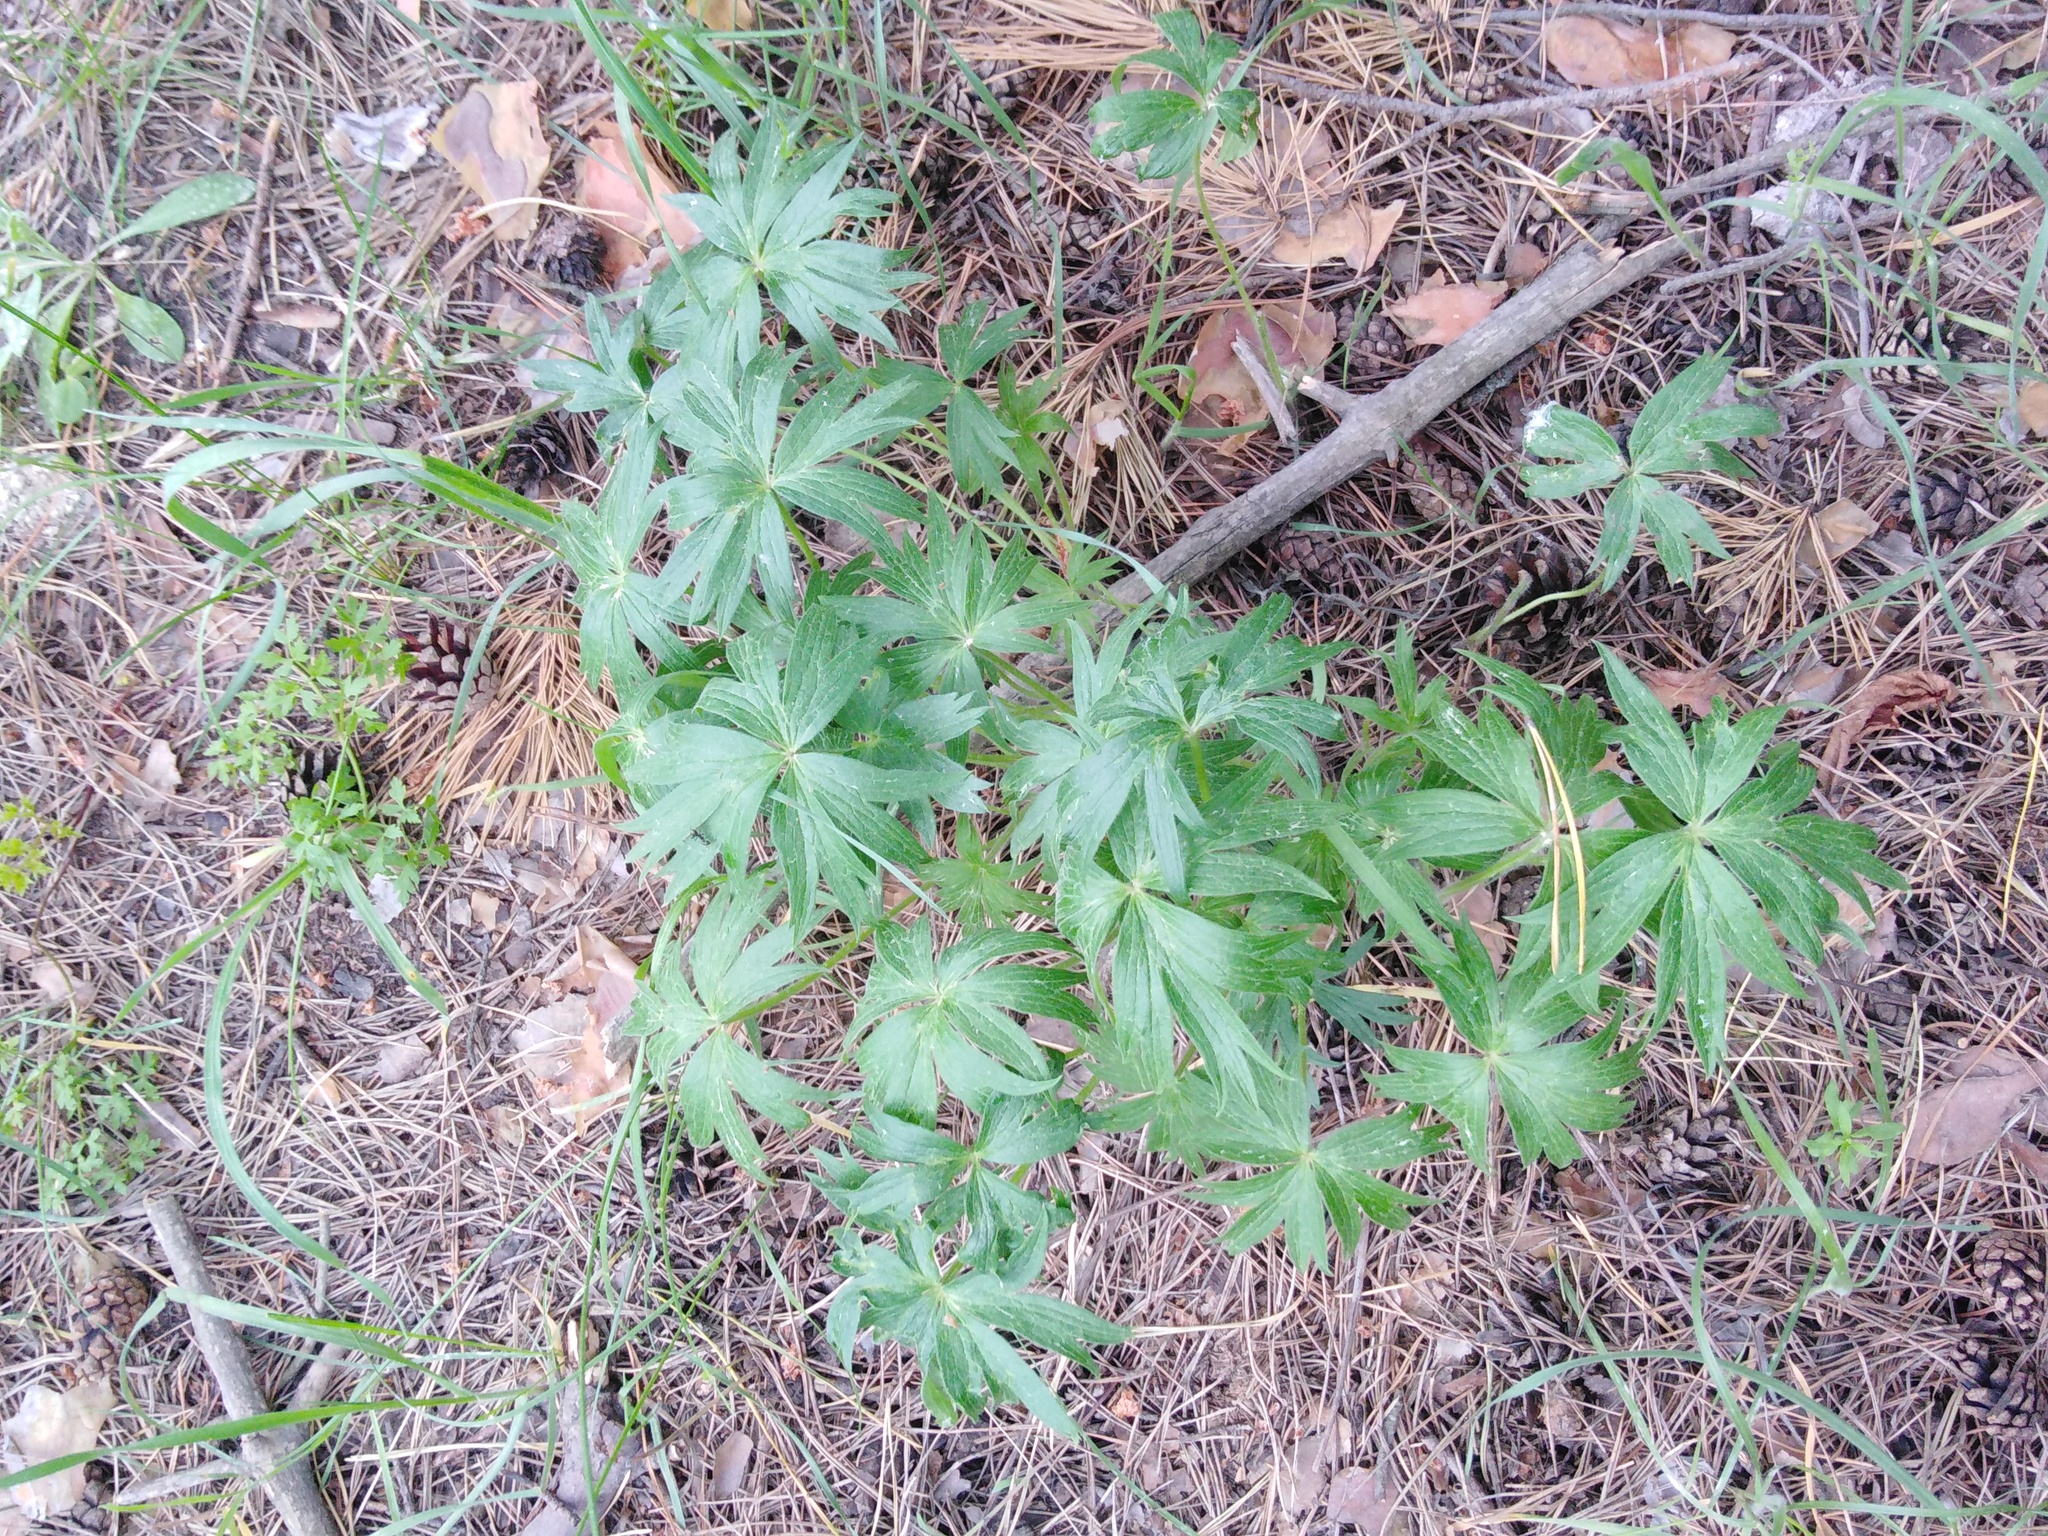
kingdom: Plantae
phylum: Tracheophyta
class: Magnoliopsida
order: Ranunculales
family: Ranunculaceae
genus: Pulsatilla
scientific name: Pulsatilla patens
